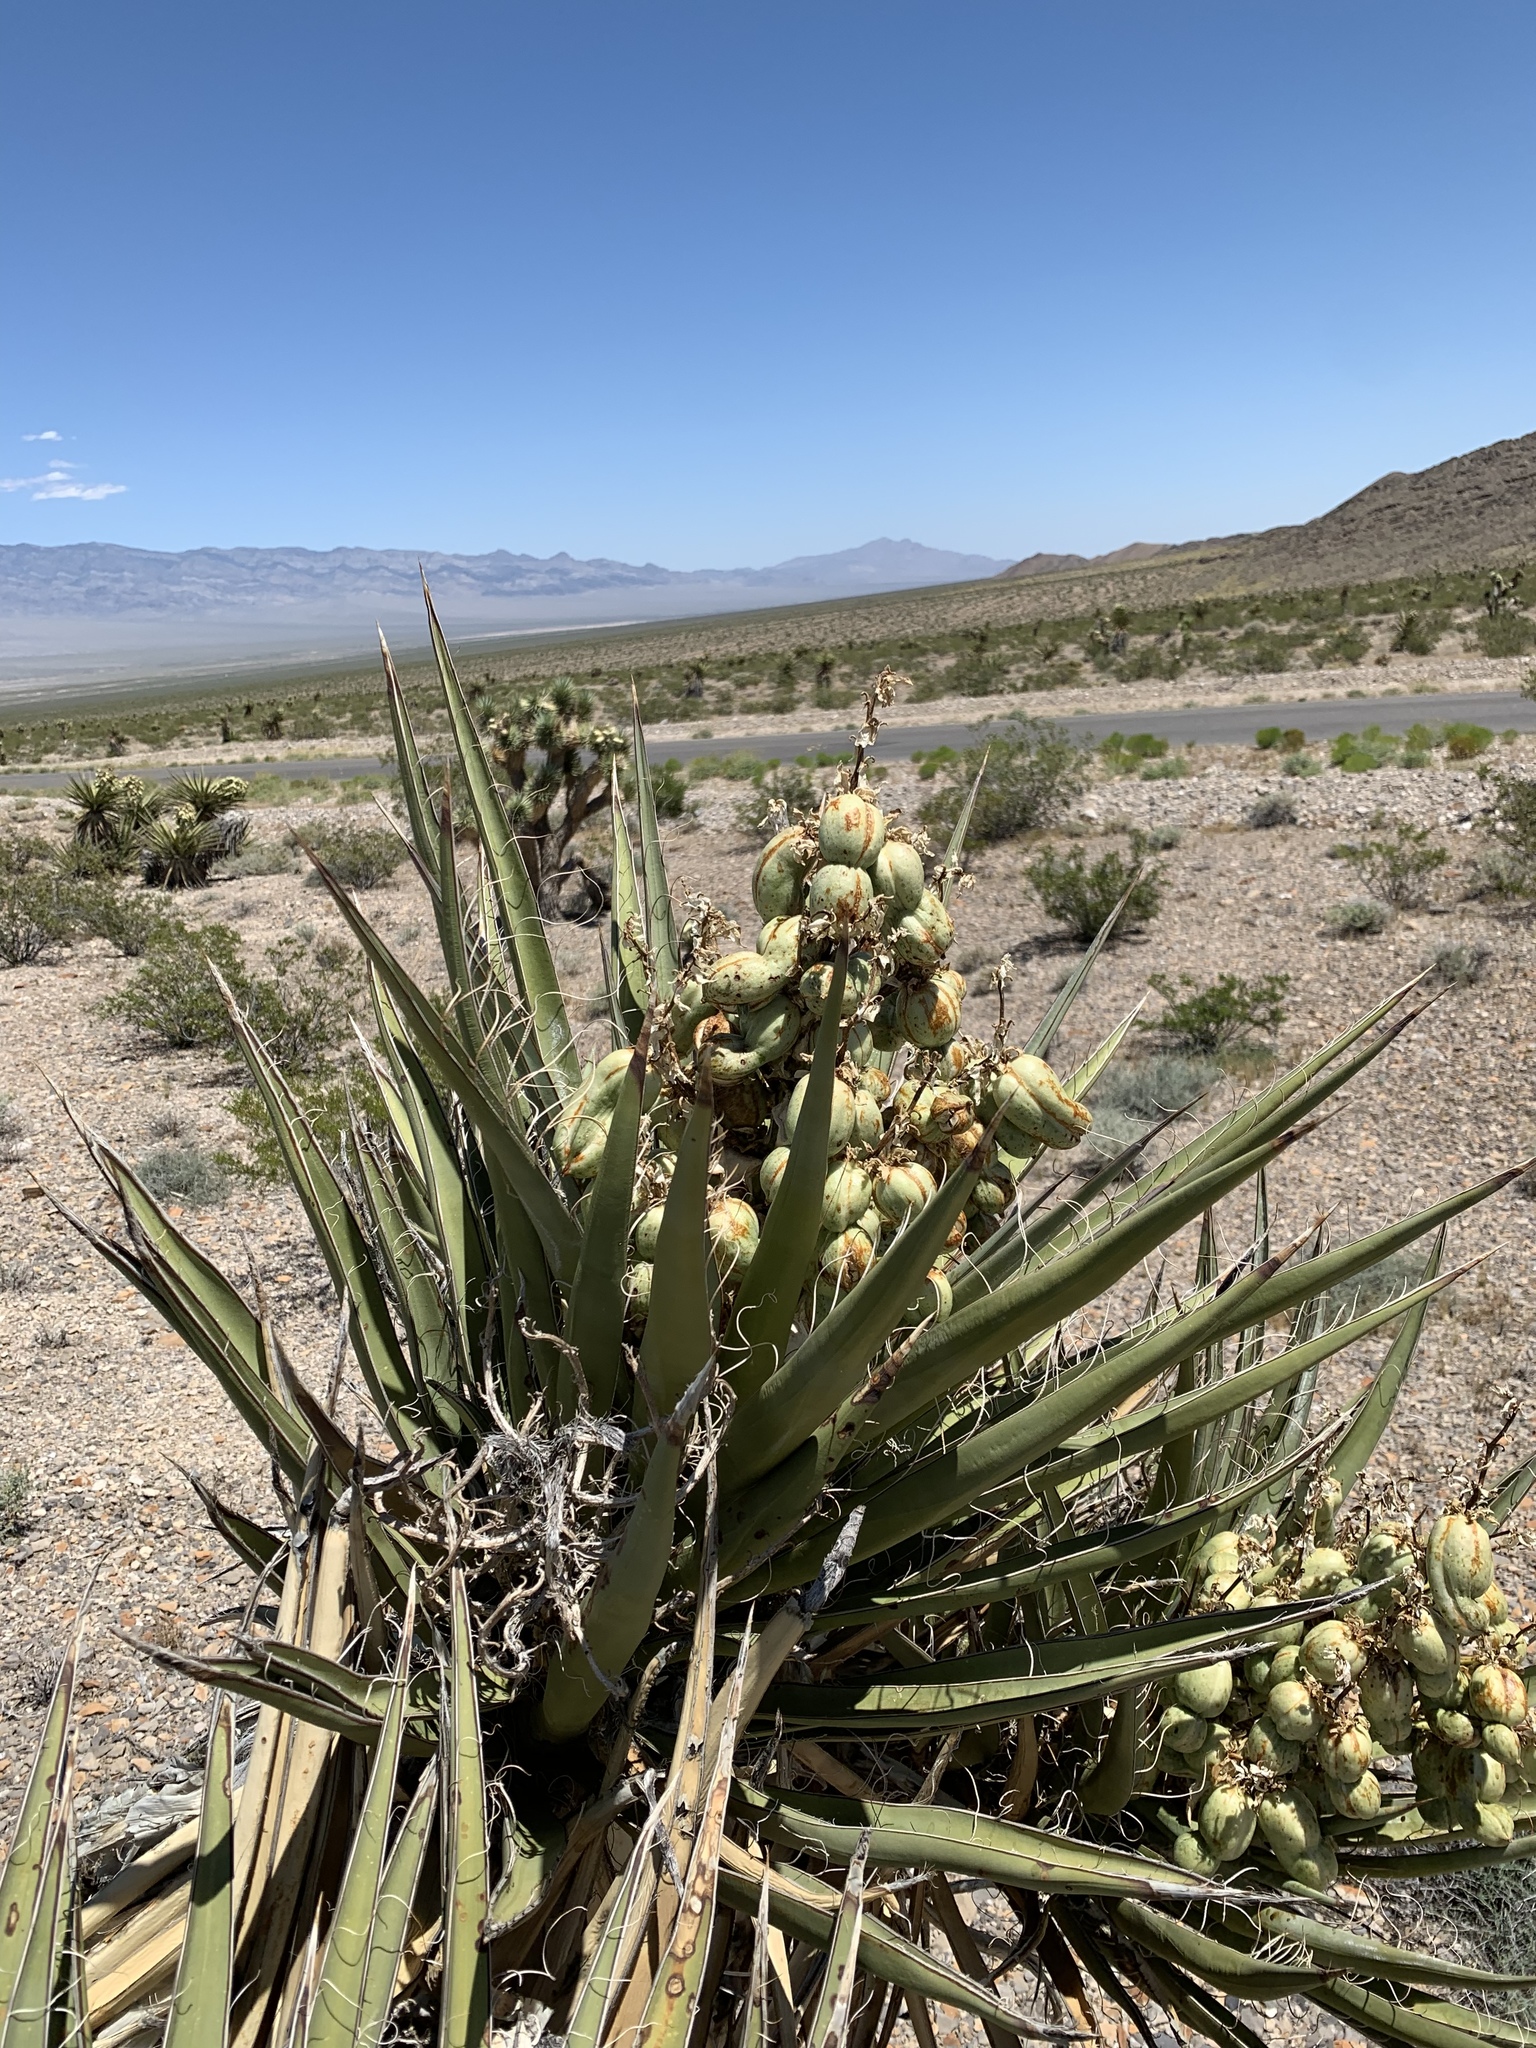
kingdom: Plantae
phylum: Tracheophyta
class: Liliopsida
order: Asparagales
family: Asparagaceae
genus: Yucca
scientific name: Yucca schidigera
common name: Mojave yucca
